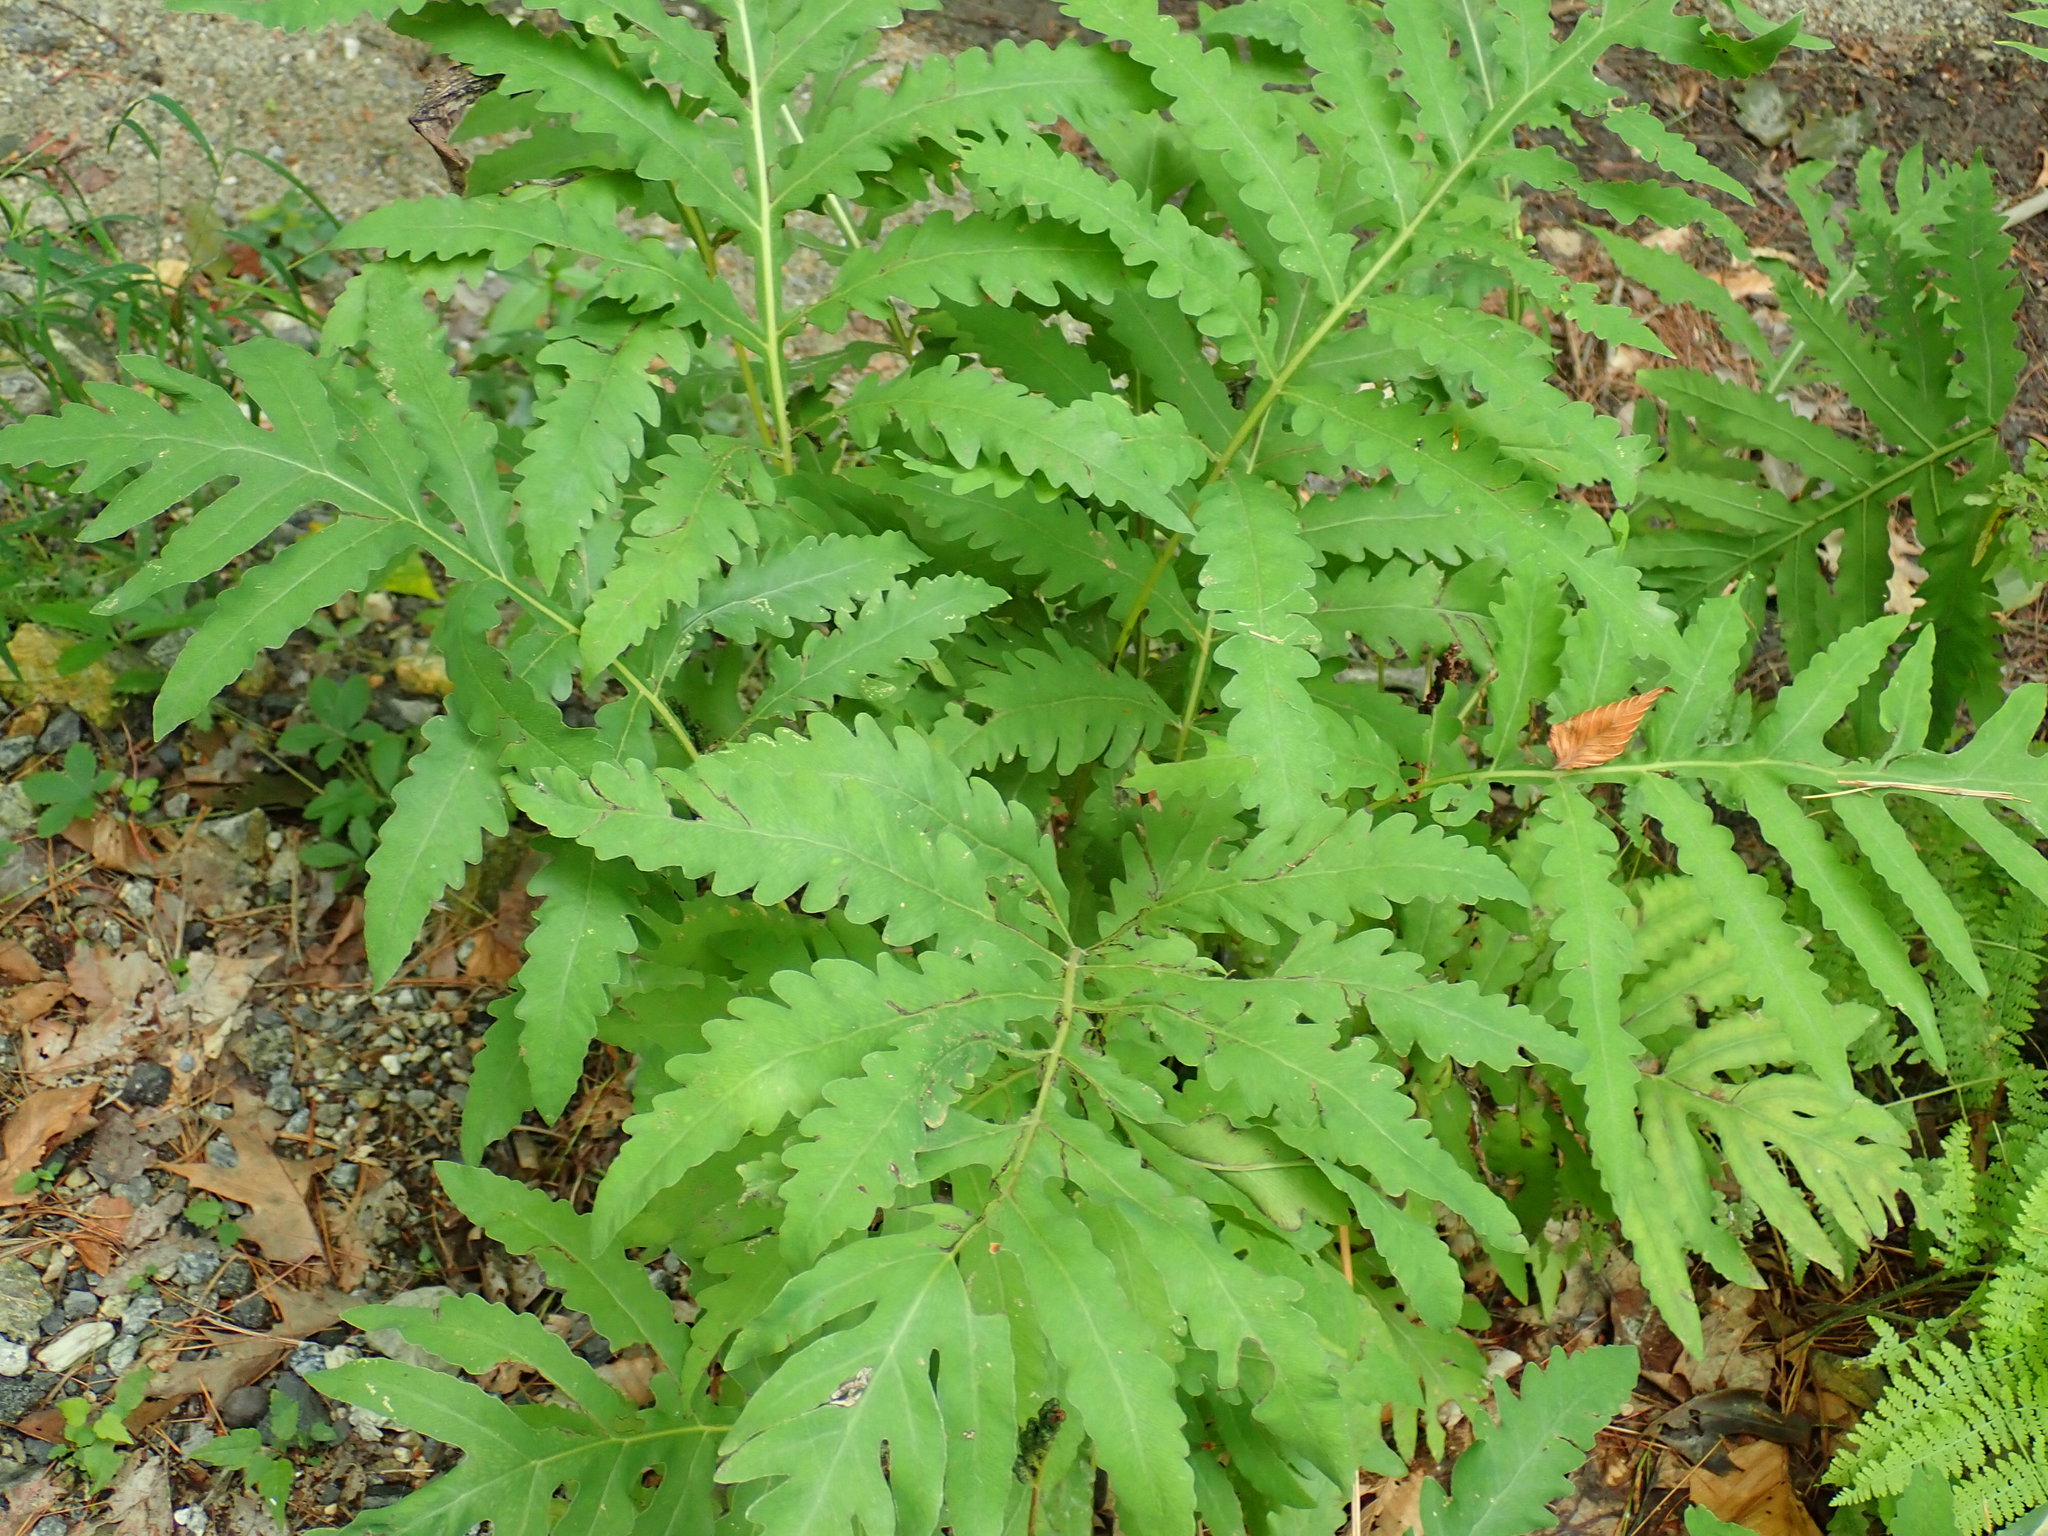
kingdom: Plantae
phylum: Tracheophyta
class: Polypodiopsida
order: Polypodiales
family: Onocleaceae
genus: Onoclea
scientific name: Onoclea sensibilis
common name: Sensitive fern
